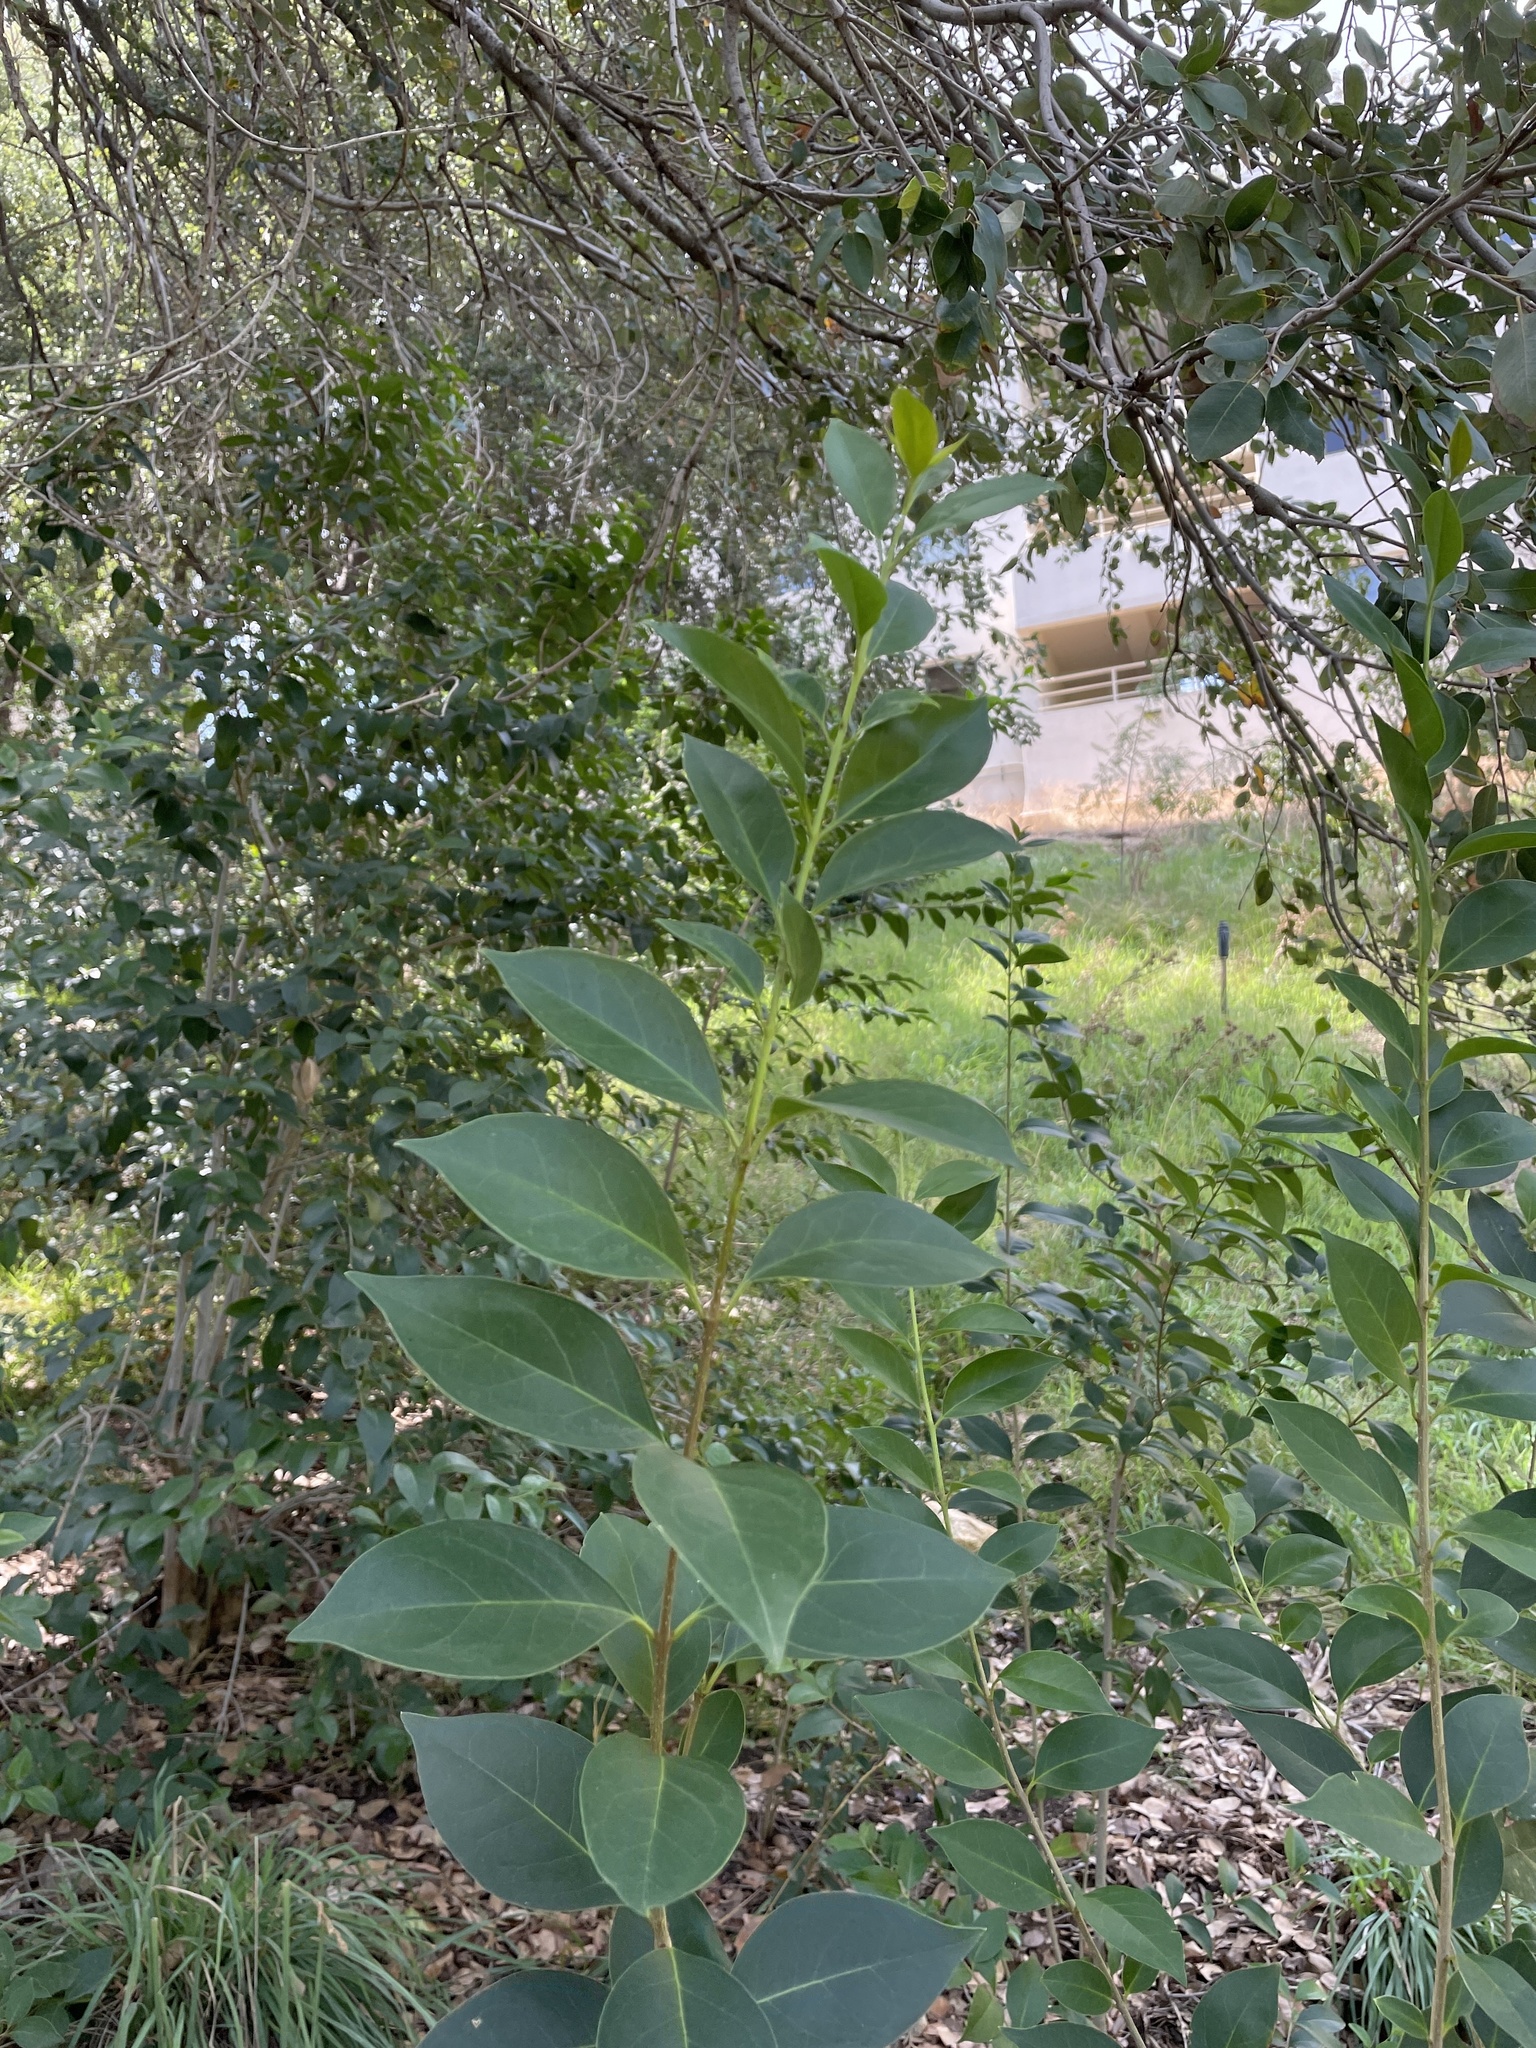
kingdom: Plantae
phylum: Tracheophyta
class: Magnoliopsida
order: Lamiales
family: Oleaceae
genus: Ligustrum
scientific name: Ligustrum lucidum
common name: Glossy privet
